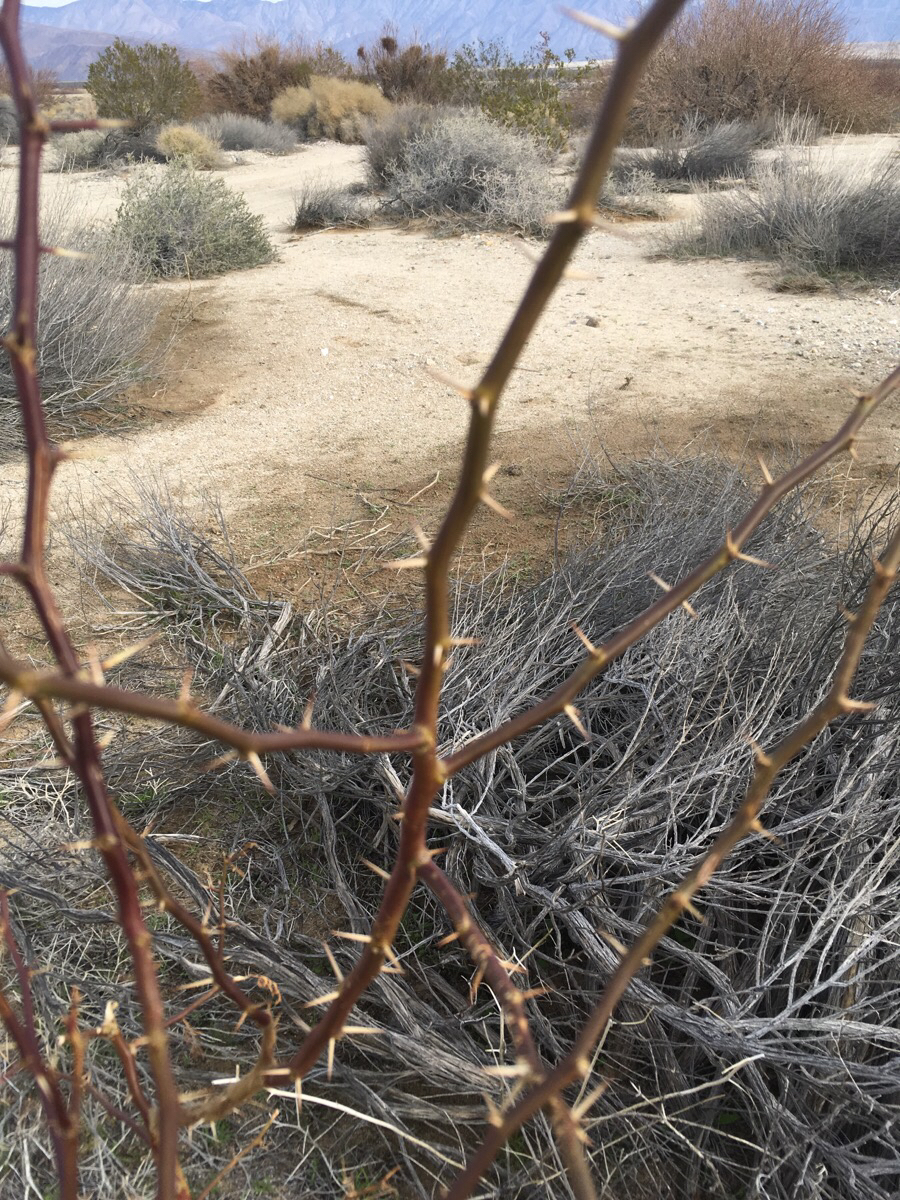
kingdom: Plantae
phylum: Tracheophyta
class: Magnoliopsida
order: Fabales
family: Fabaceae
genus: Prosopis
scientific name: Prosopis glandulosa
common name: Honey mesquite
